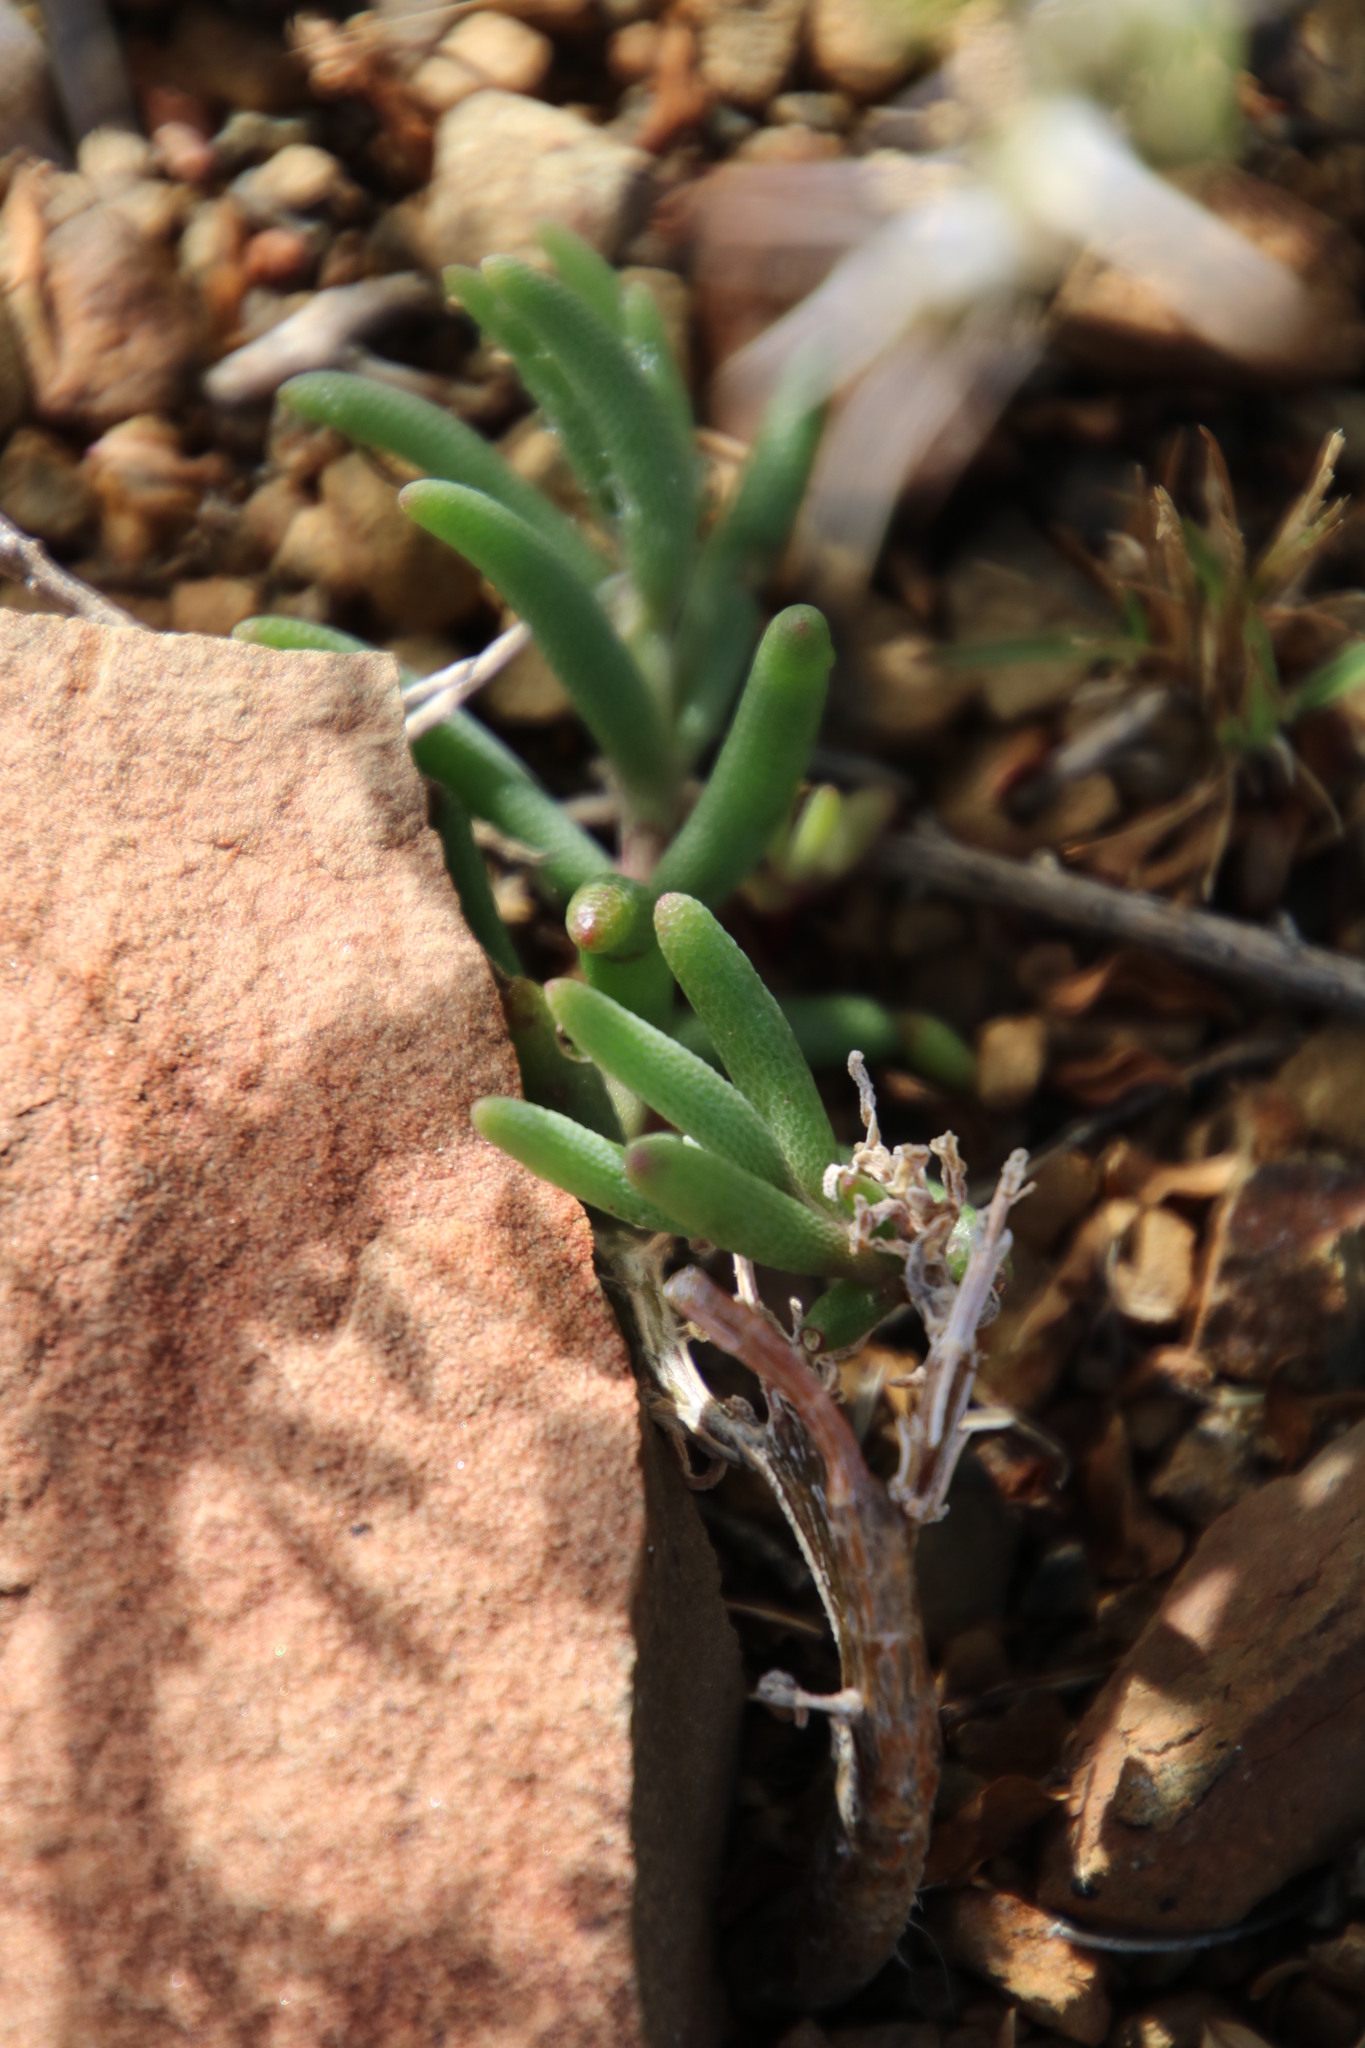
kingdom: Plantae
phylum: Tracheophyta
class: Magnoliopsida
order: Caryophyllales
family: Aizoaceae
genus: Mesembryanthemum
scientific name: Mesembryanthemum nitidum
